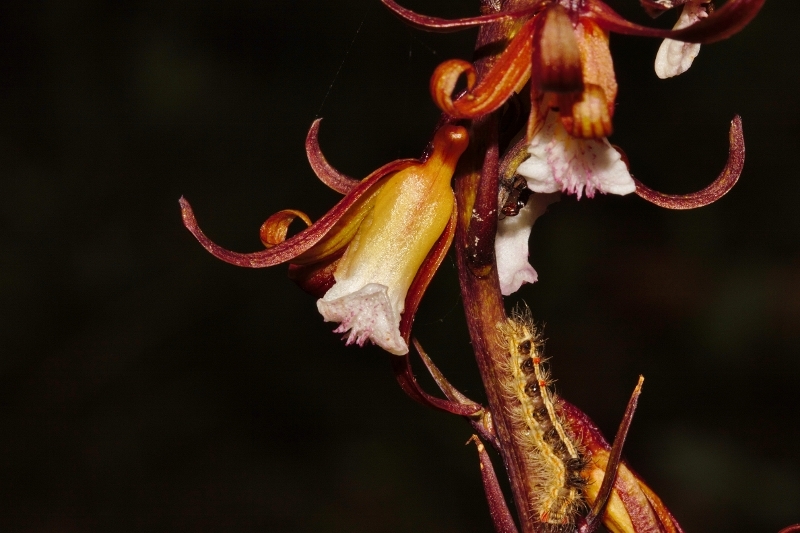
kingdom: Plantae
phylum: Tracheophyta
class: Liliopsida
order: Asparagales
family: Orchidaceae
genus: Eulophia
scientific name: Eulophia subsaprophytica
